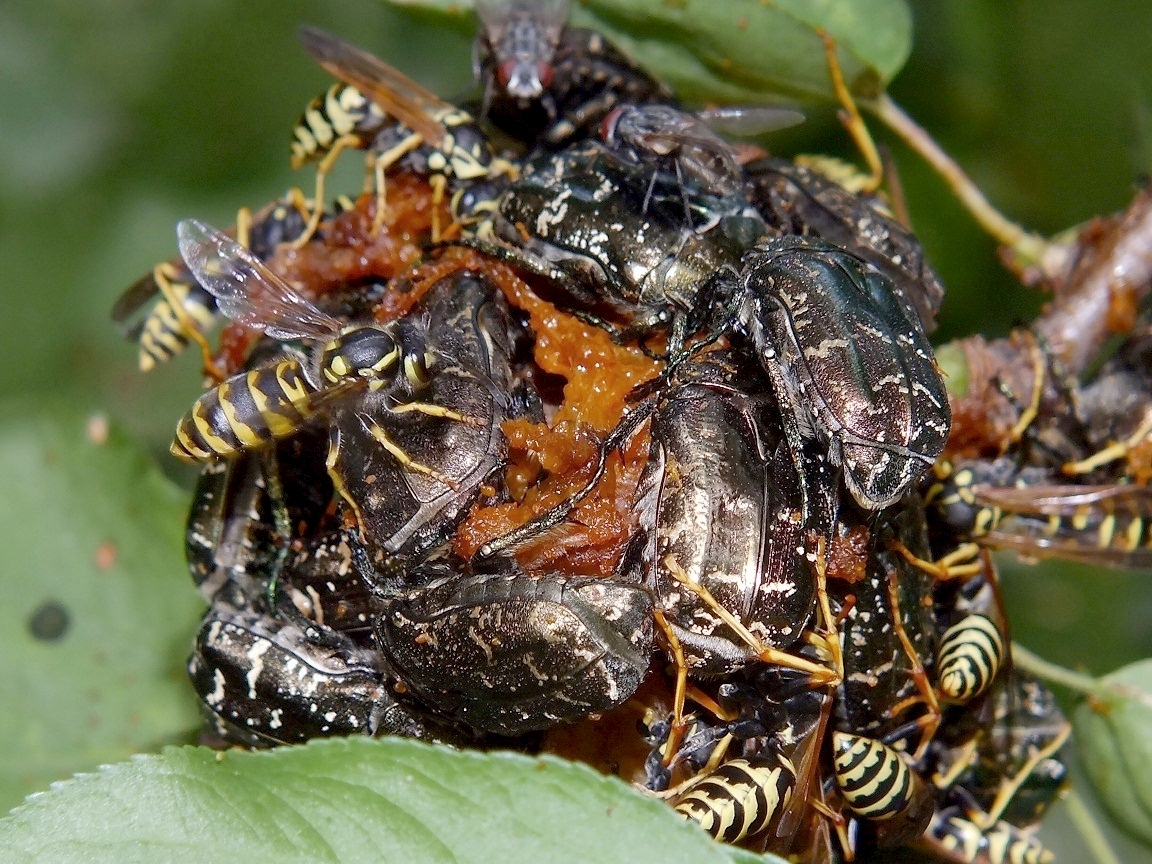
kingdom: Animalia
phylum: Arthropoda
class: Insecta
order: Coleoptera
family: Scarabaeidae
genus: Protaetia
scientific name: Protaetia cuprea
